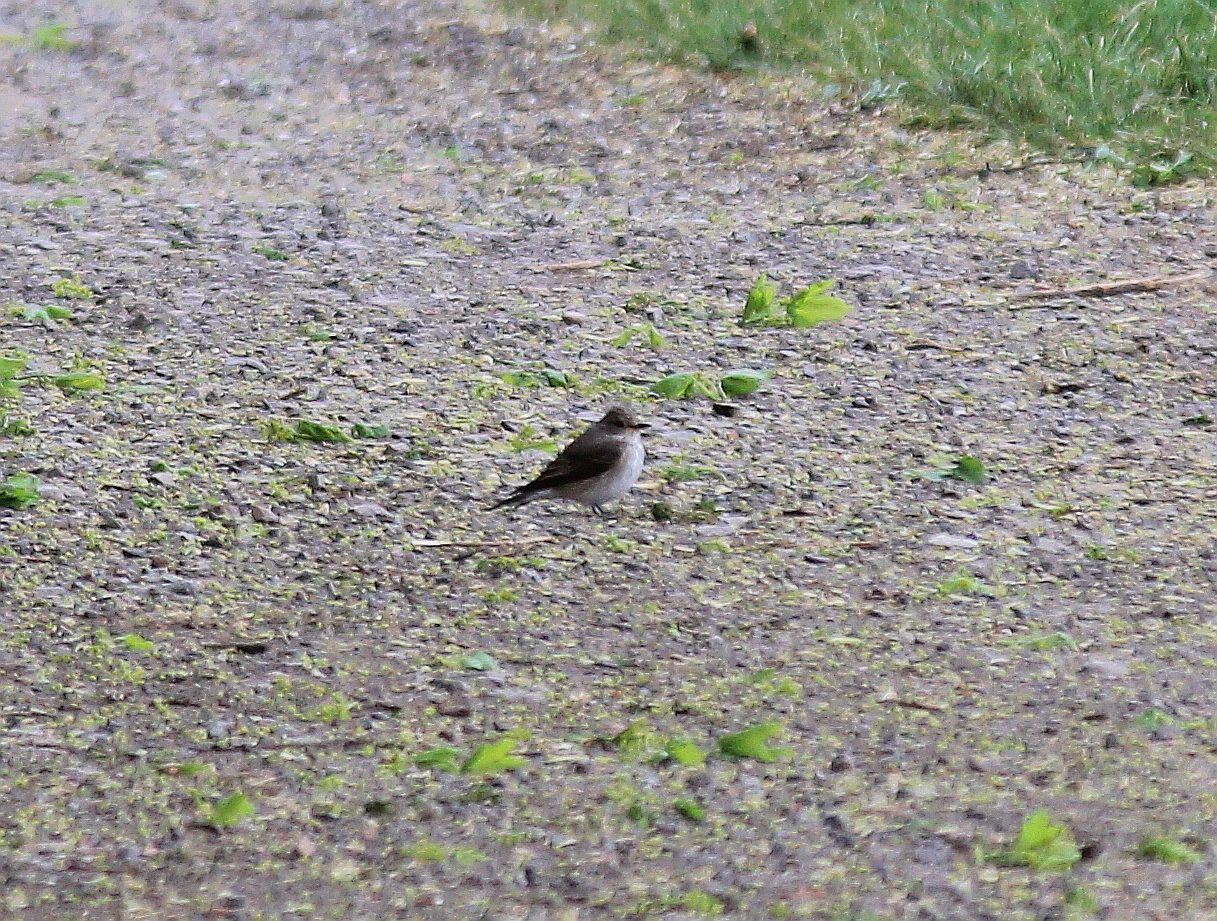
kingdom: Animalia
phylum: Chordata
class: Aves
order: Passeriformes
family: Muscicapidae
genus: Muscicapa
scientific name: Muscicapa striata
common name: Spotted flycatcher
